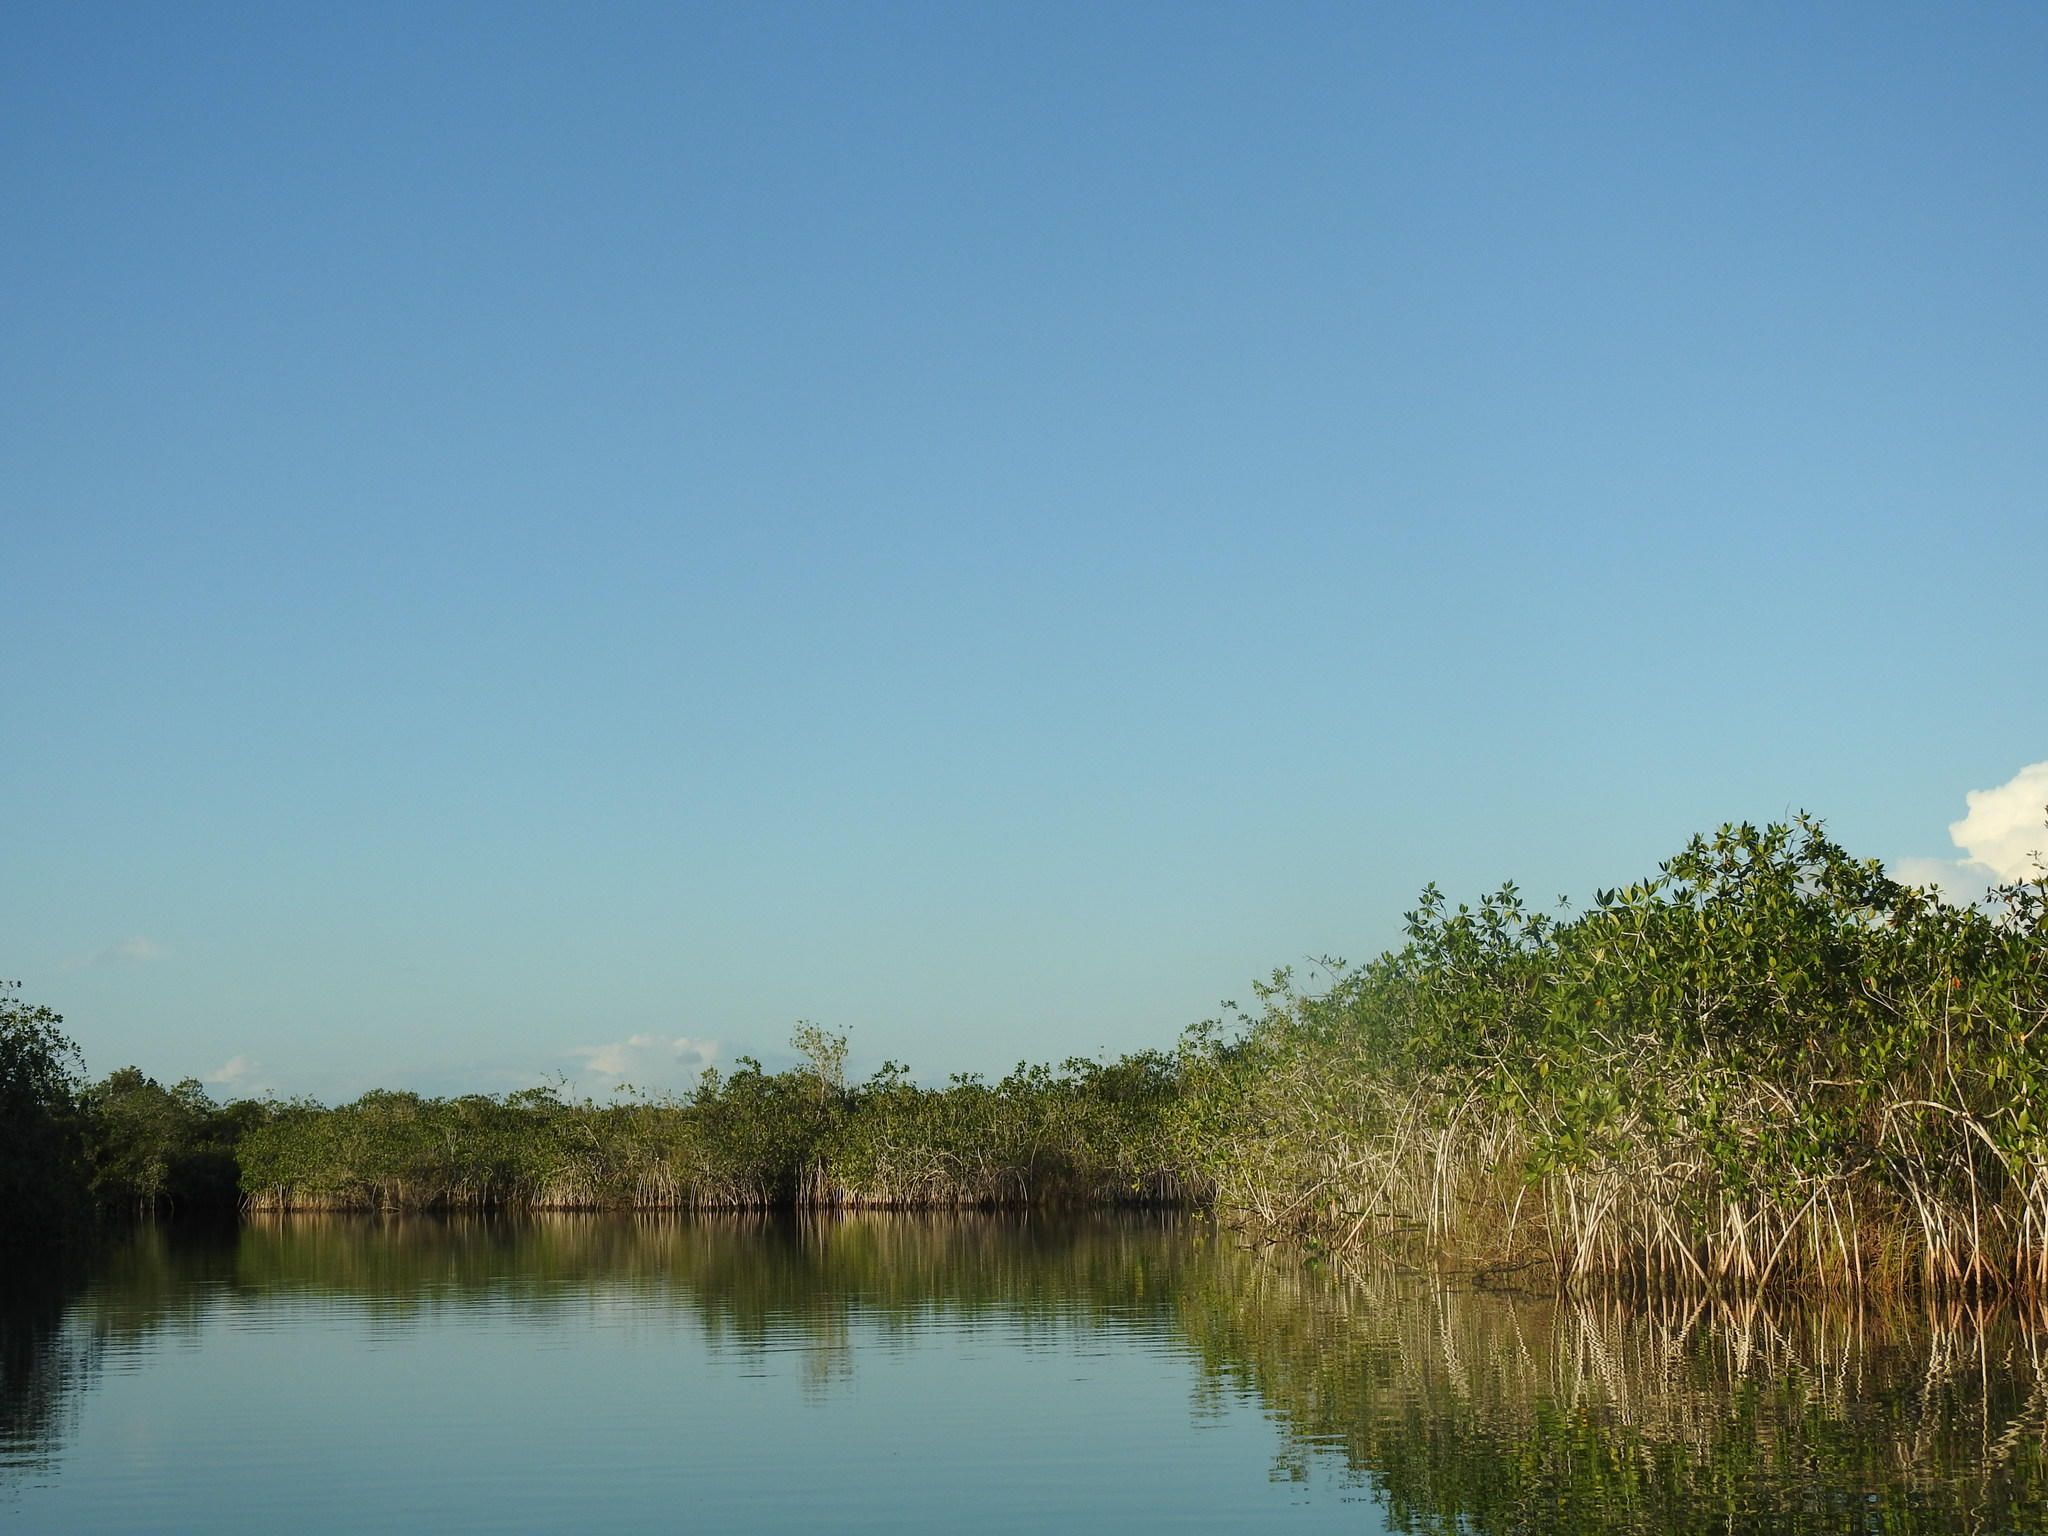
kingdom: Plantae
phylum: Tracheophyta
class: Magnoliopsida
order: Malpighiales
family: Rhizophoraceae
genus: Rhizophora
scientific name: Rhizophora mangle
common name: Red mangrove
